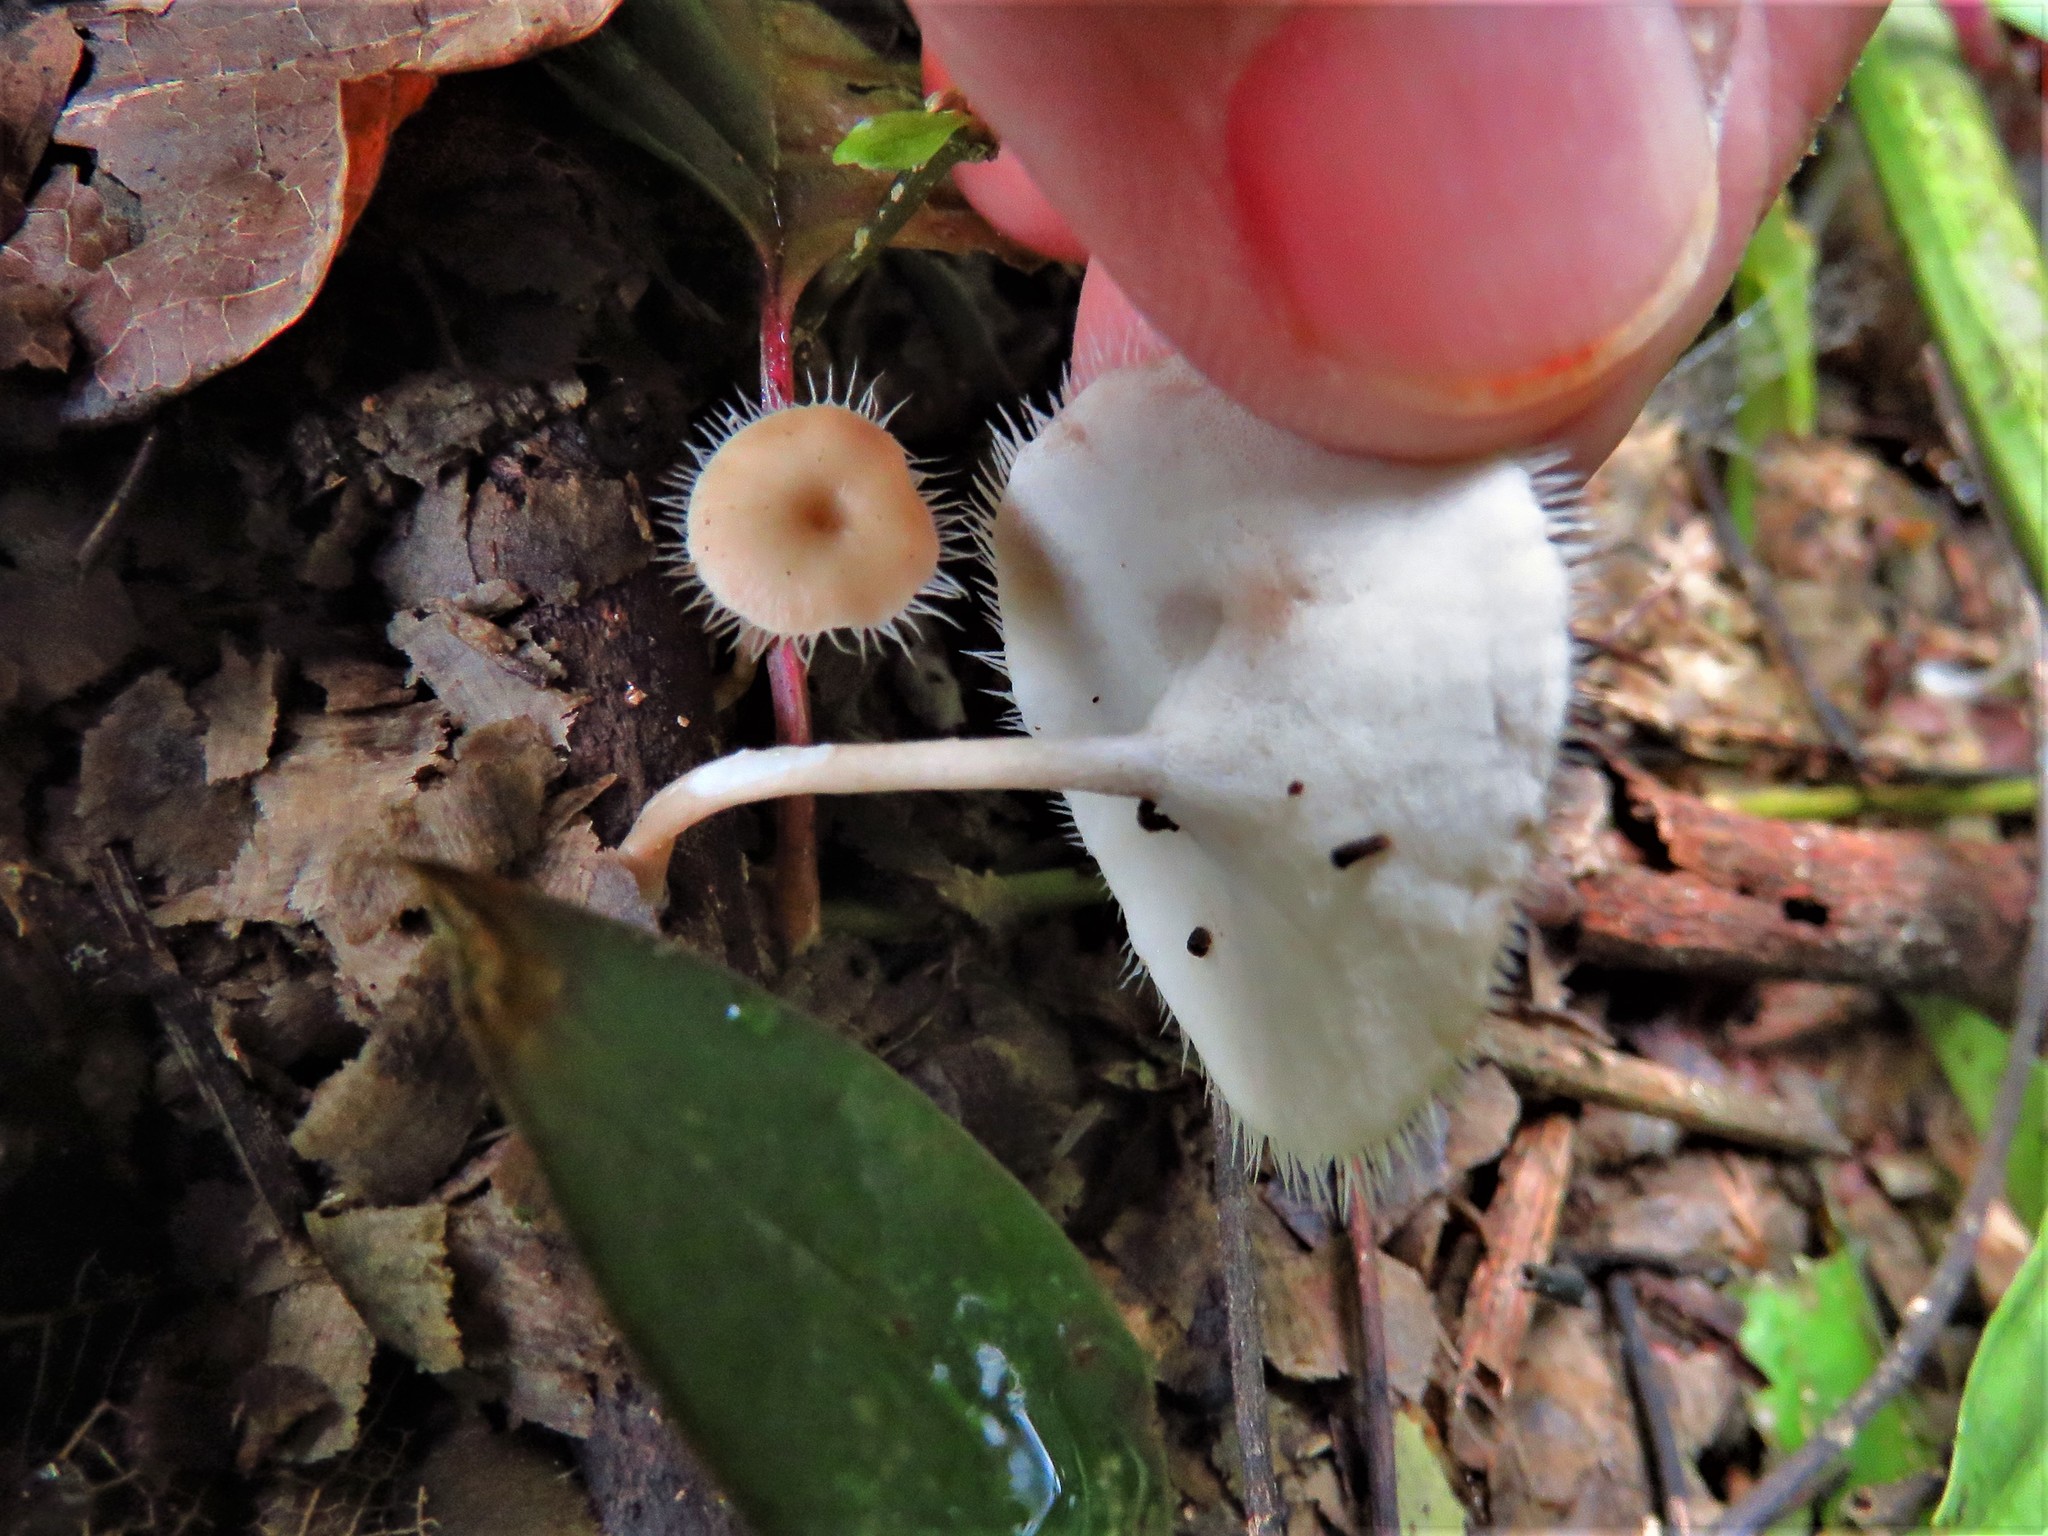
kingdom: Fungi
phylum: Basidiomycota
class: Agaricomycetes
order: Polyporales
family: Polyporaceae
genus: Lentinus
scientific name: Lentinus flexipes
